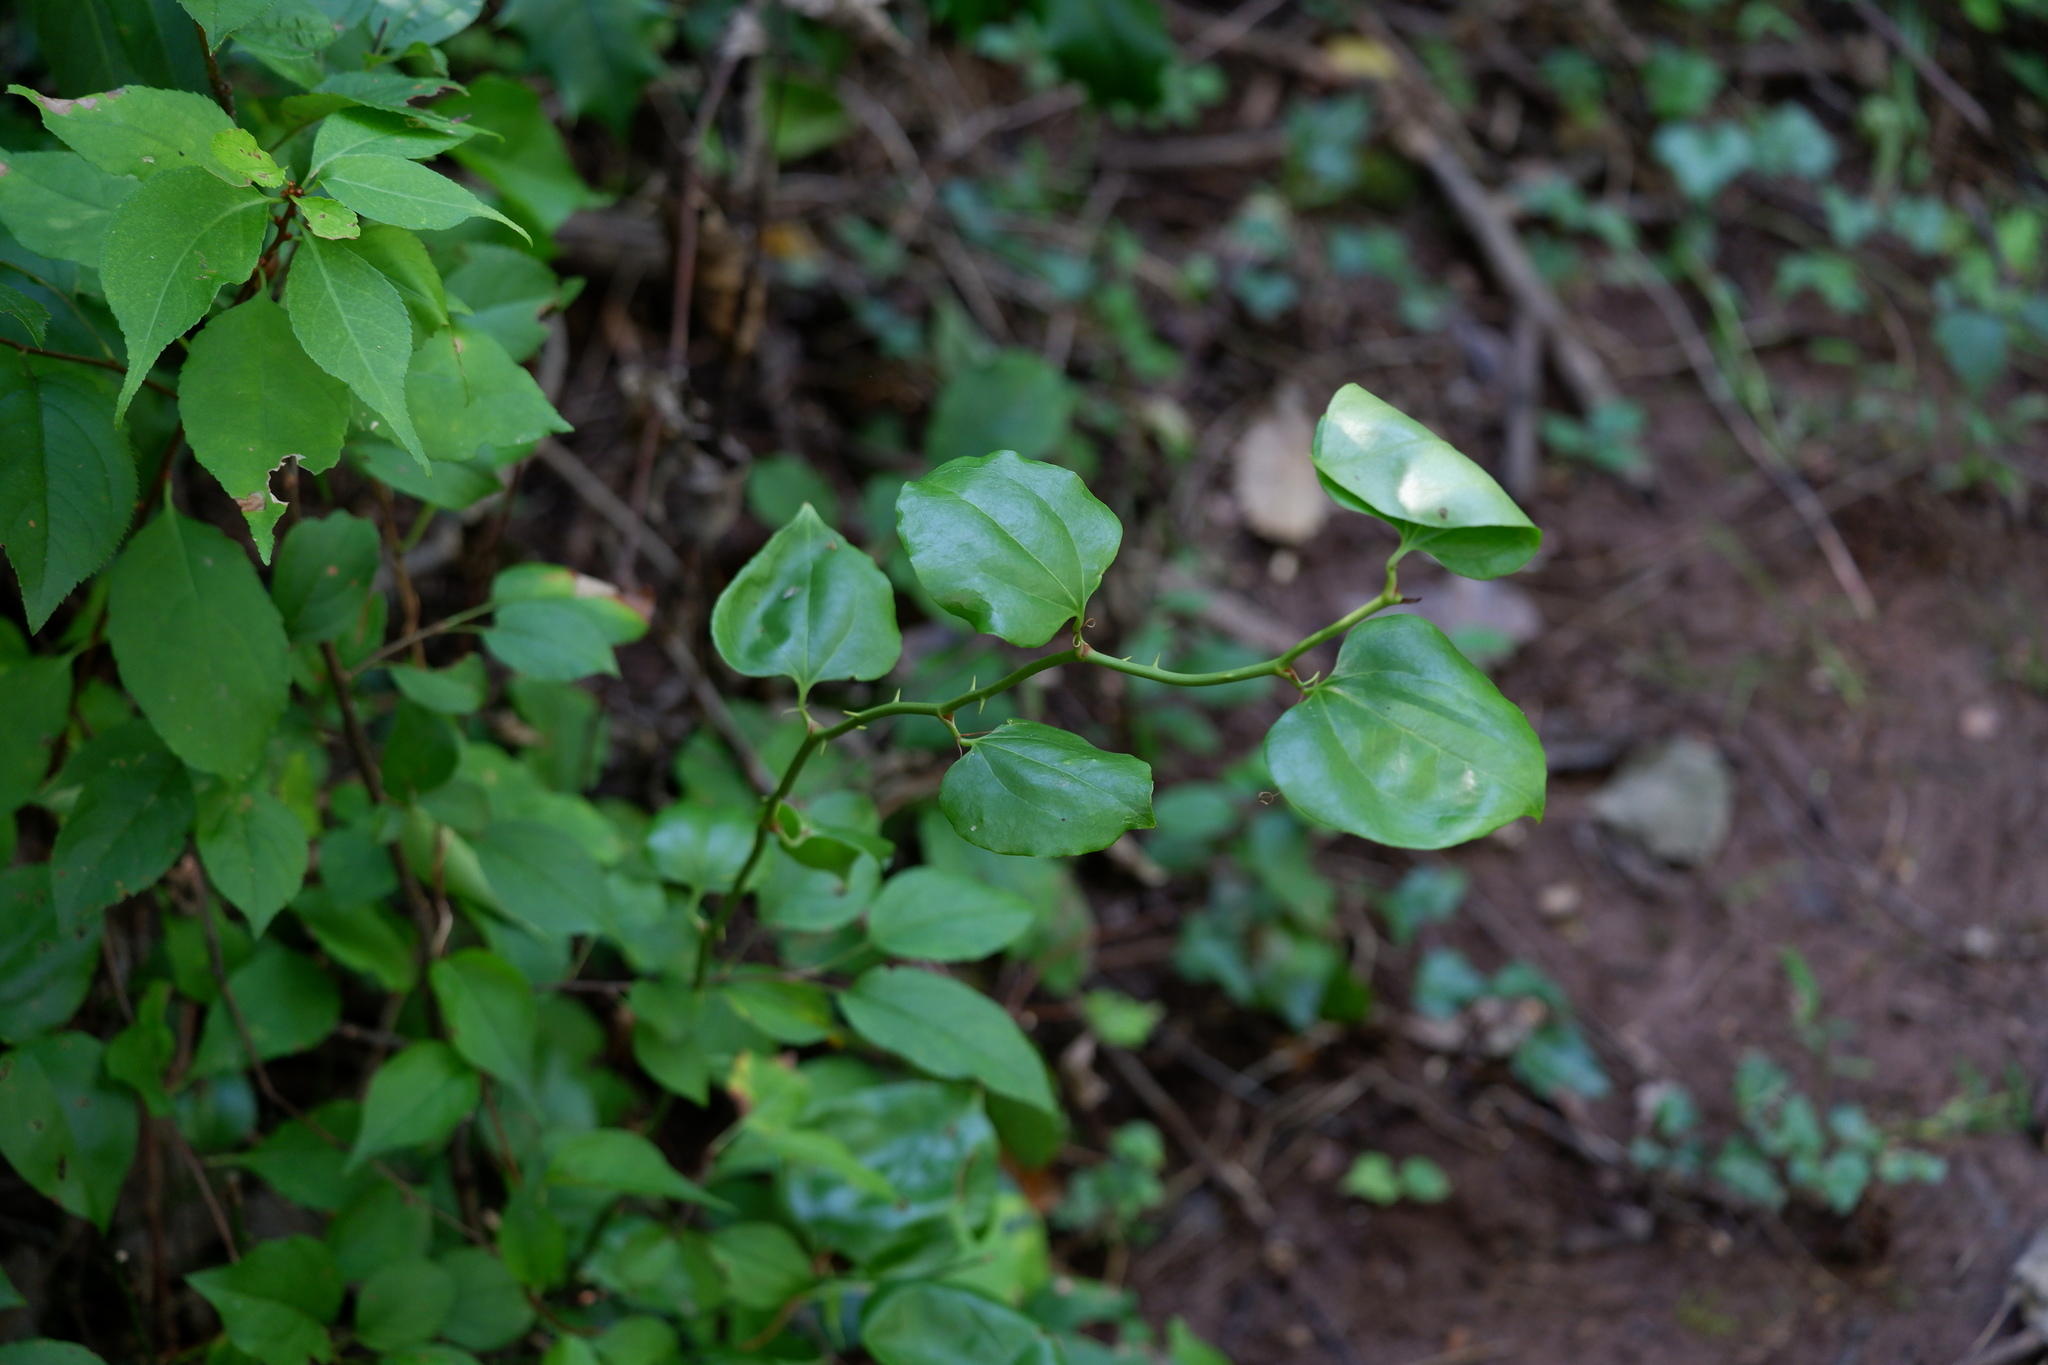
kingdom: Plantae
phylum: Tracheophyta
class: Liliopsida
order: Liliales
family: Smilacaceae
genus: Smilax
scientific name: Smilax rotundifolia
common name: Bullbriar
